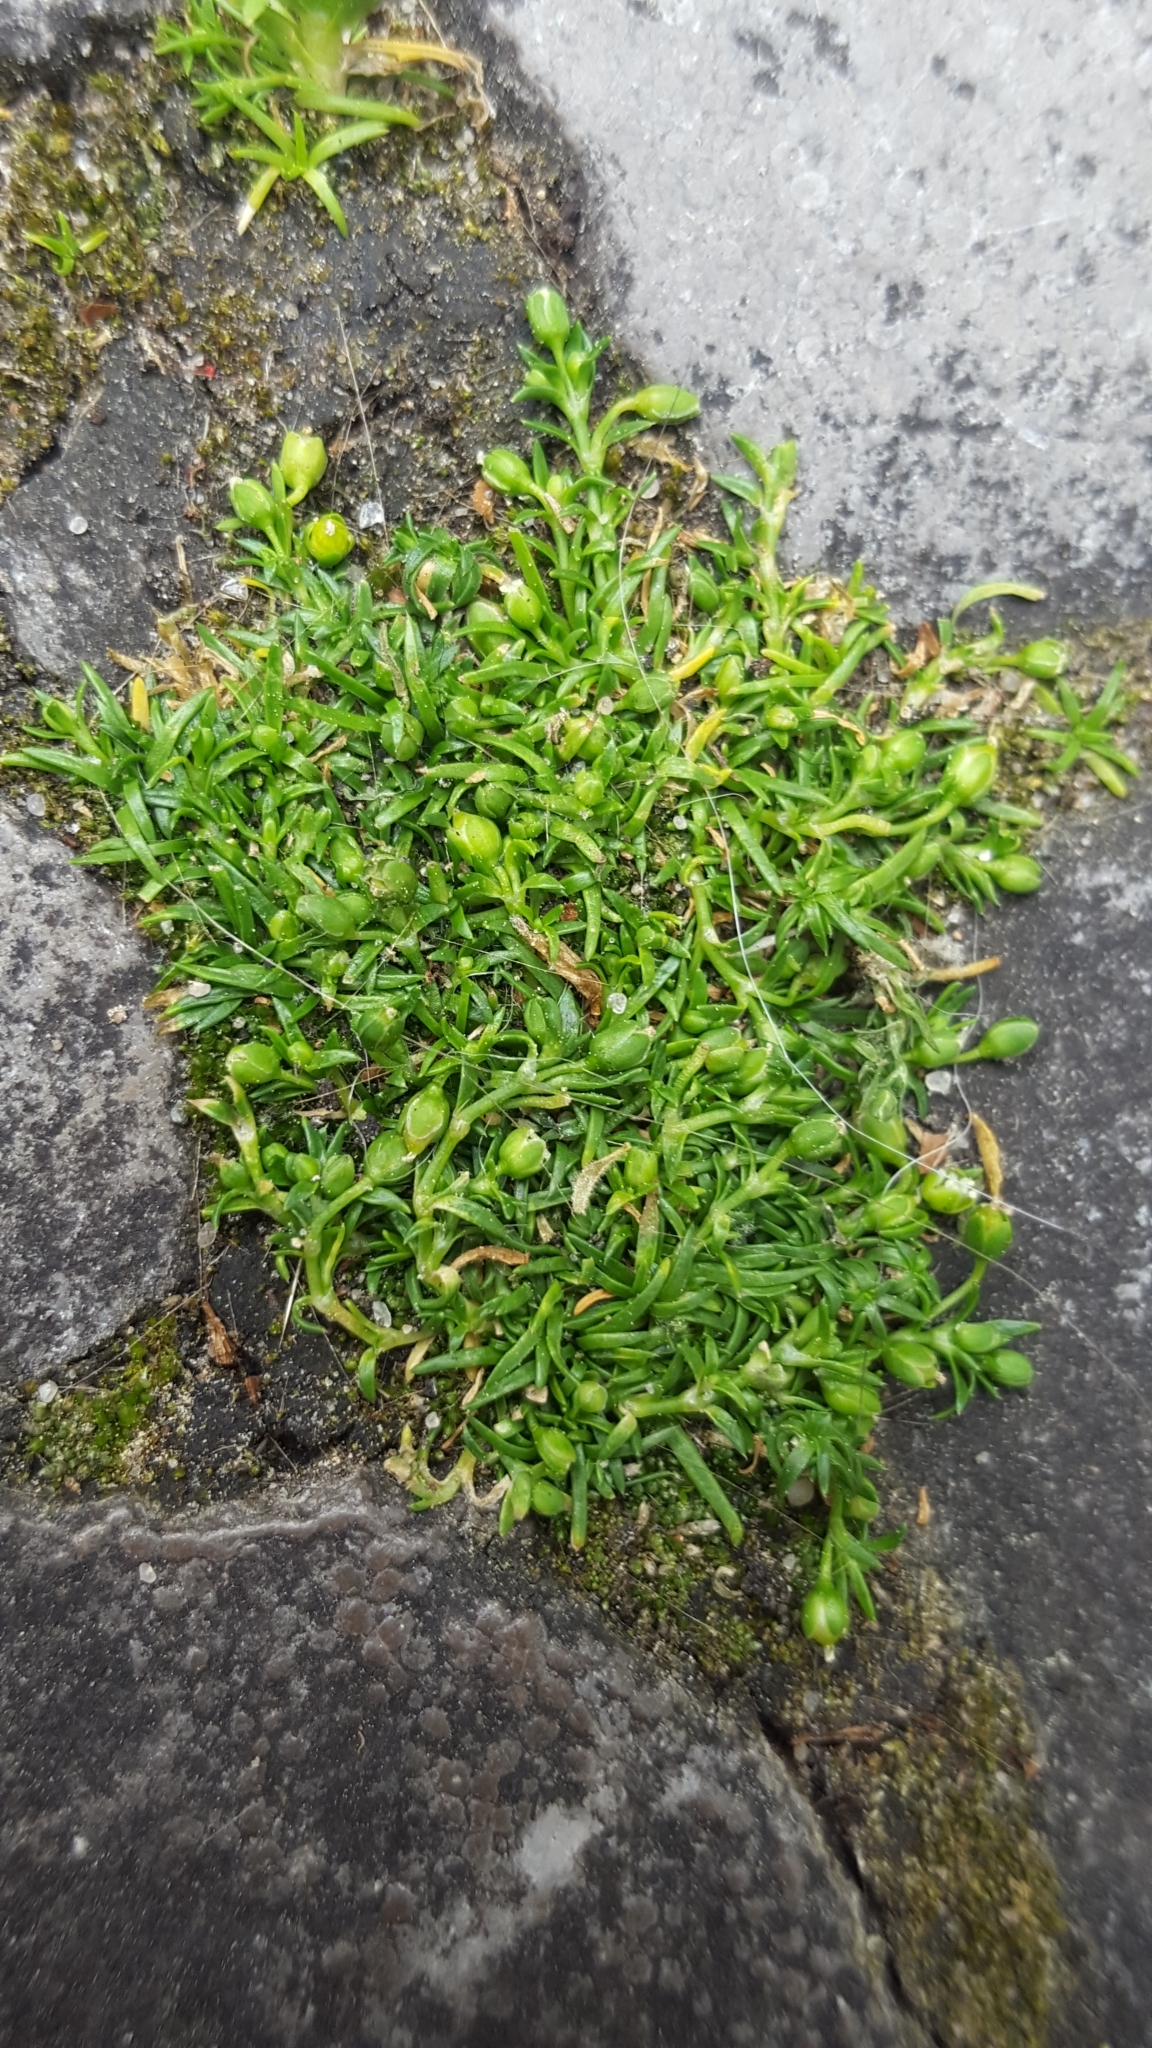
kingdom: Plantae
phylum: Tracheophyta
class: Magnoliopsida
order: Caryophyllales
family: Caryophyllaceae
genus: Sagina
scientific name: Sagina procumbens
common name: Procumbent pearlwort
